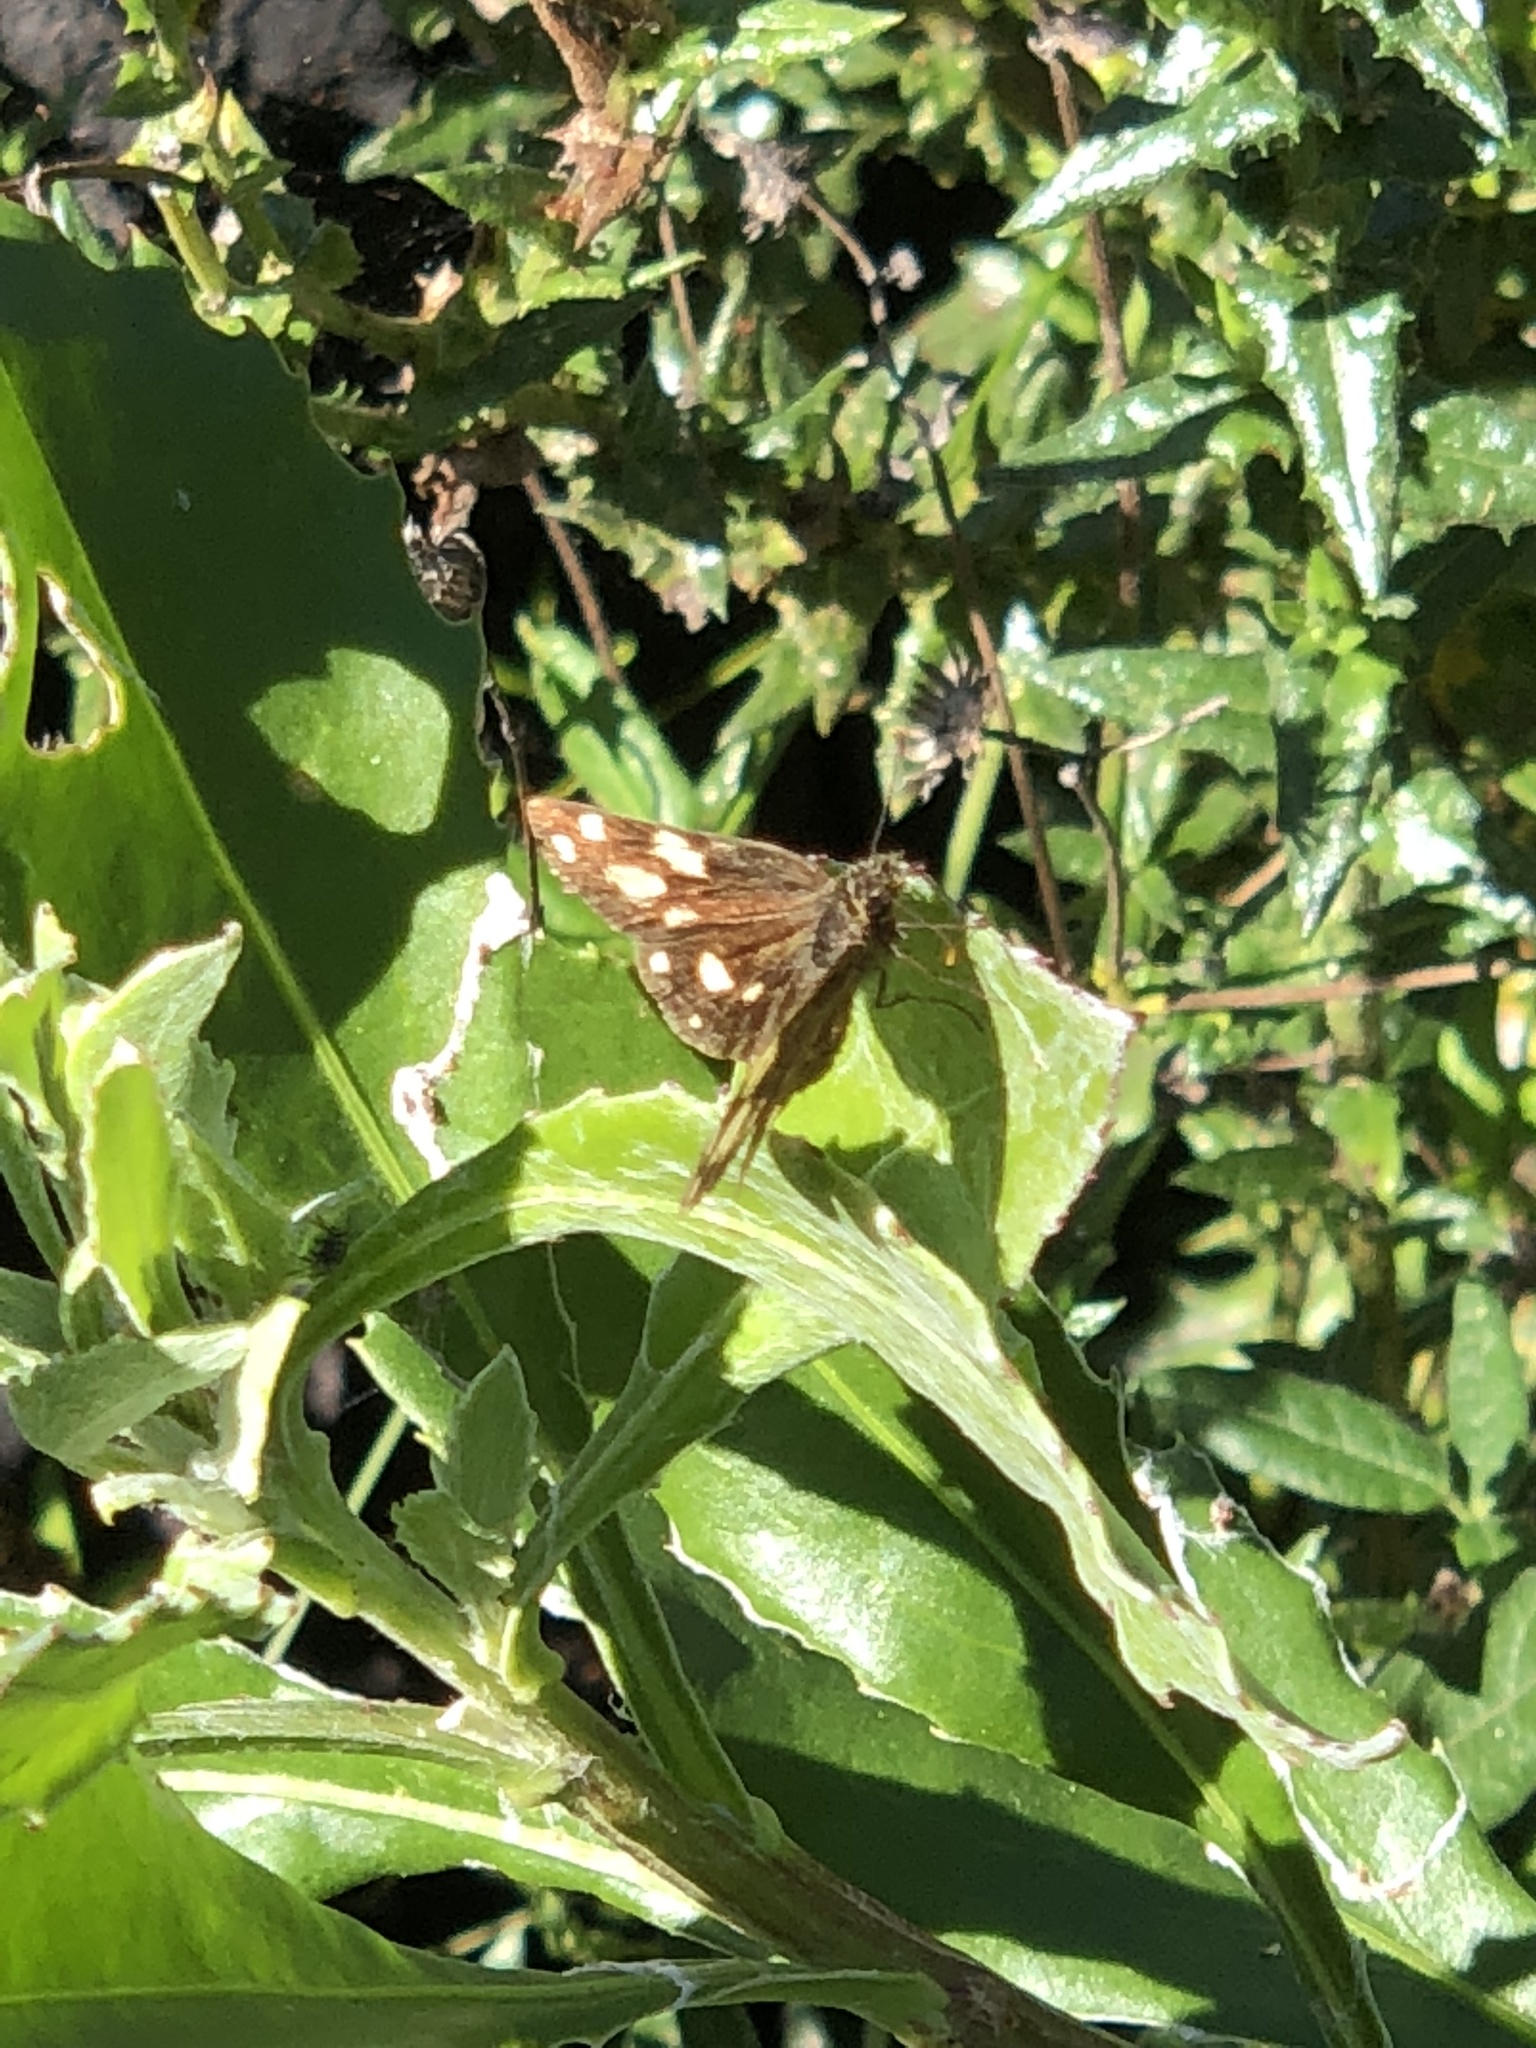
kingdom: Animalia
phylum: Arthropoda
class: Insecta
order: Lepidoptera
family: Hesperiidae
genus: Metisella
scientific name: Metisella metis
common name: Western gold-spotted sylph
